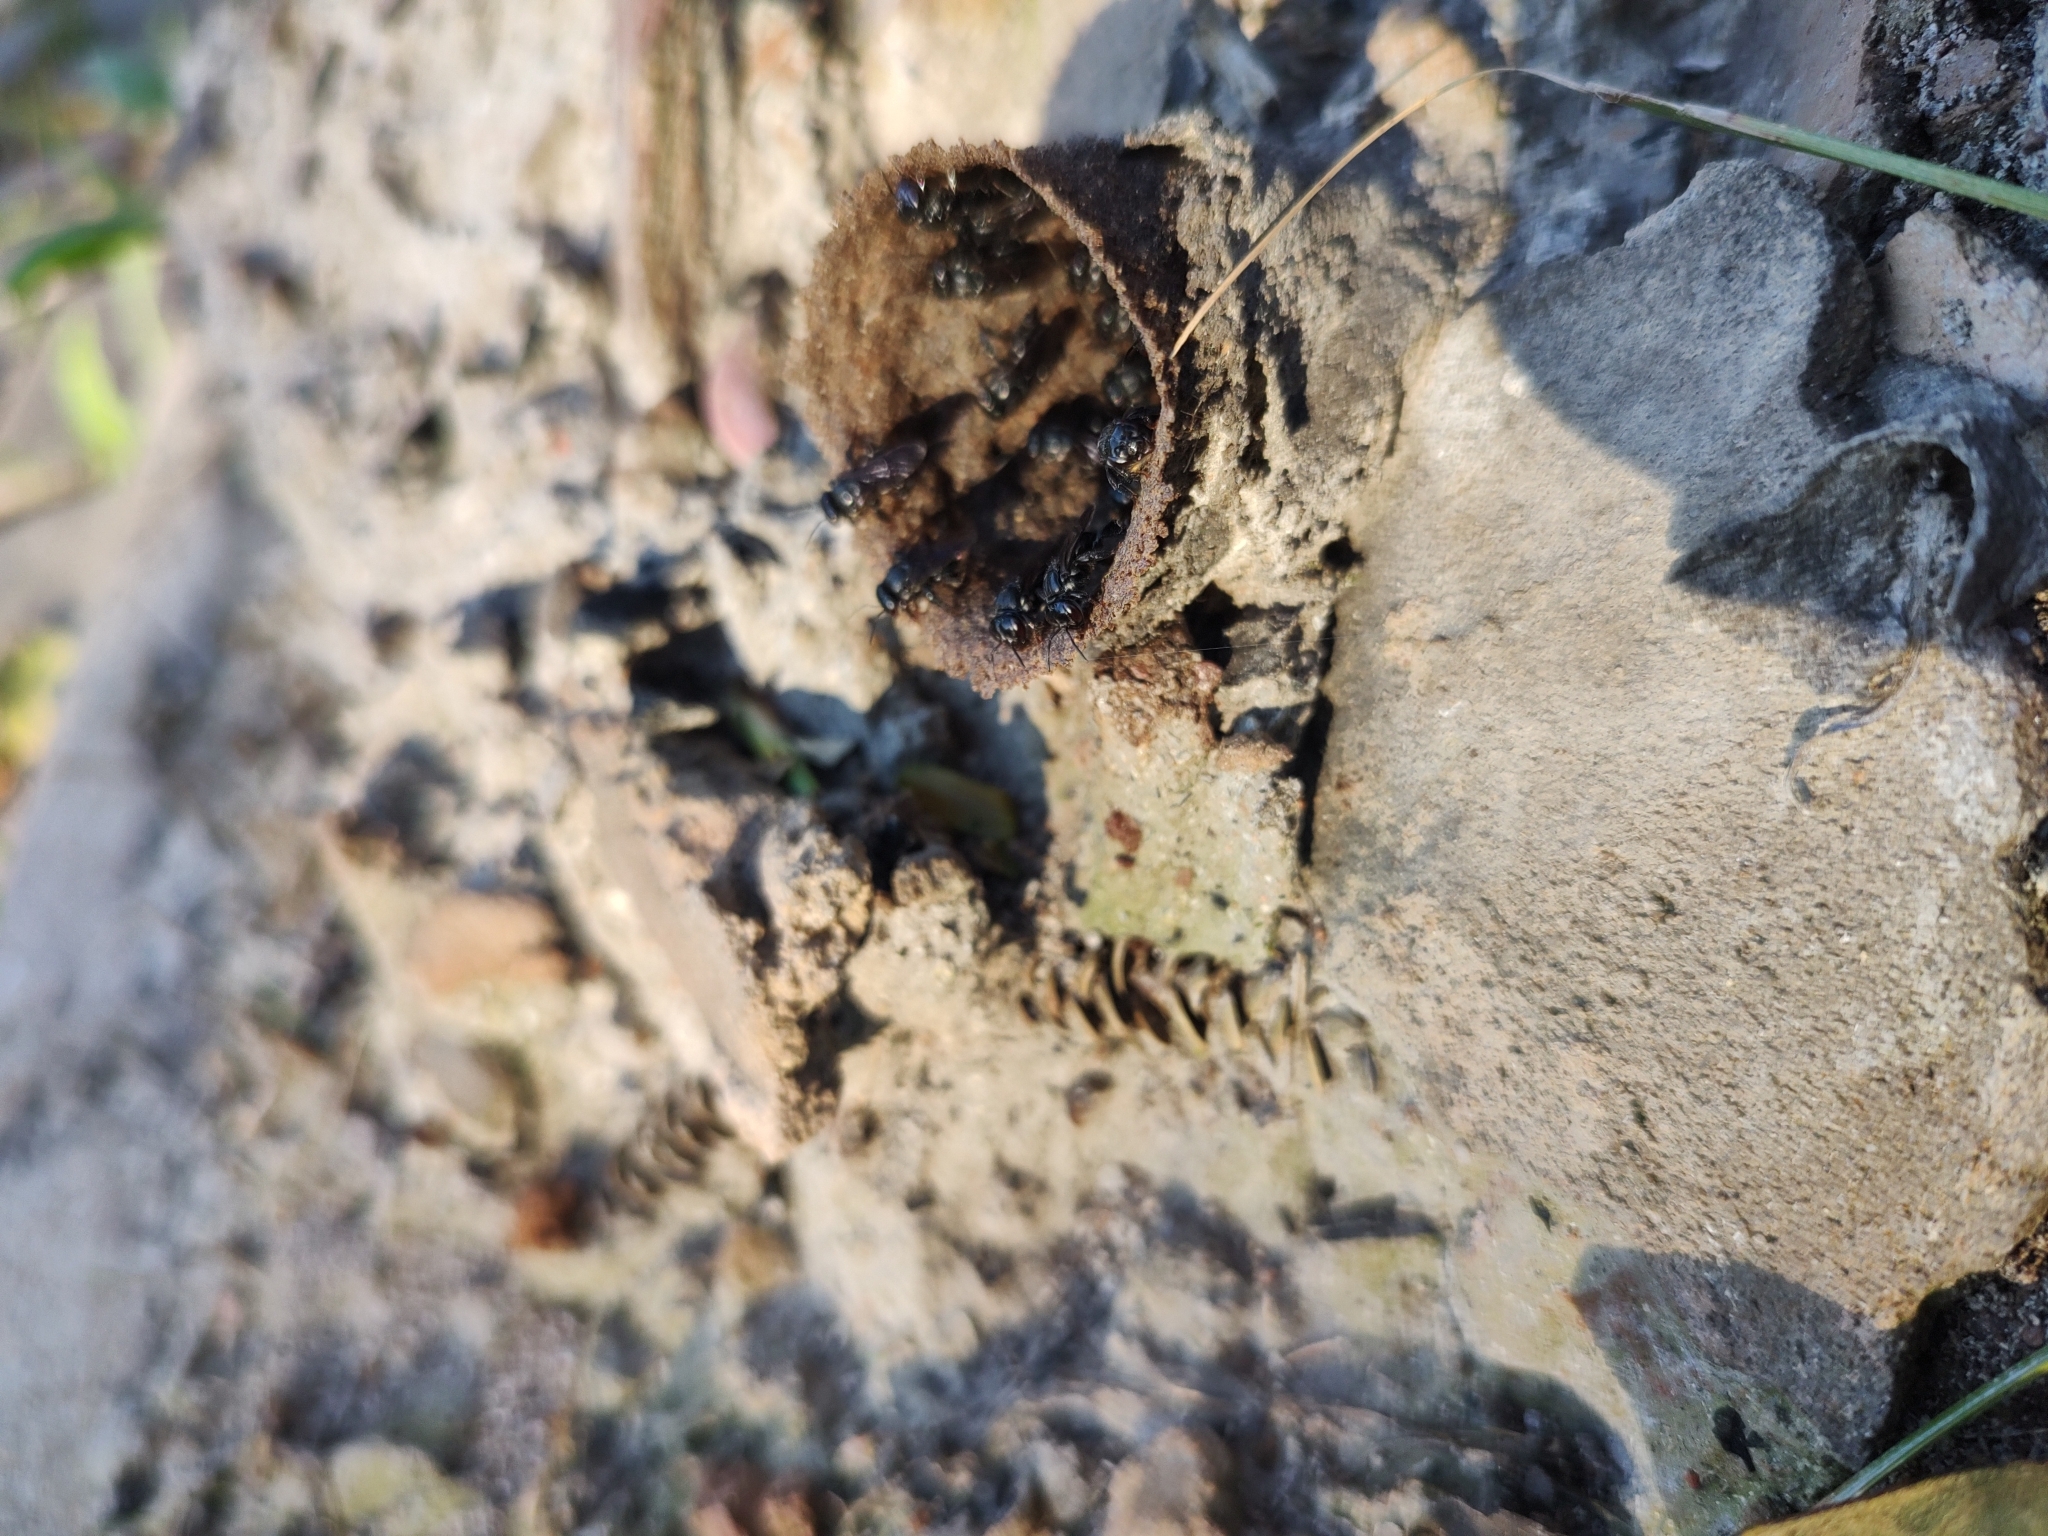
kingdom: Animalia
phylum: Arthropoda
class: Insecta
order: Hymenoptera
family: Apidae
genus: Scaptotrigona
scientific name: Scaptotrigona bipunctata
